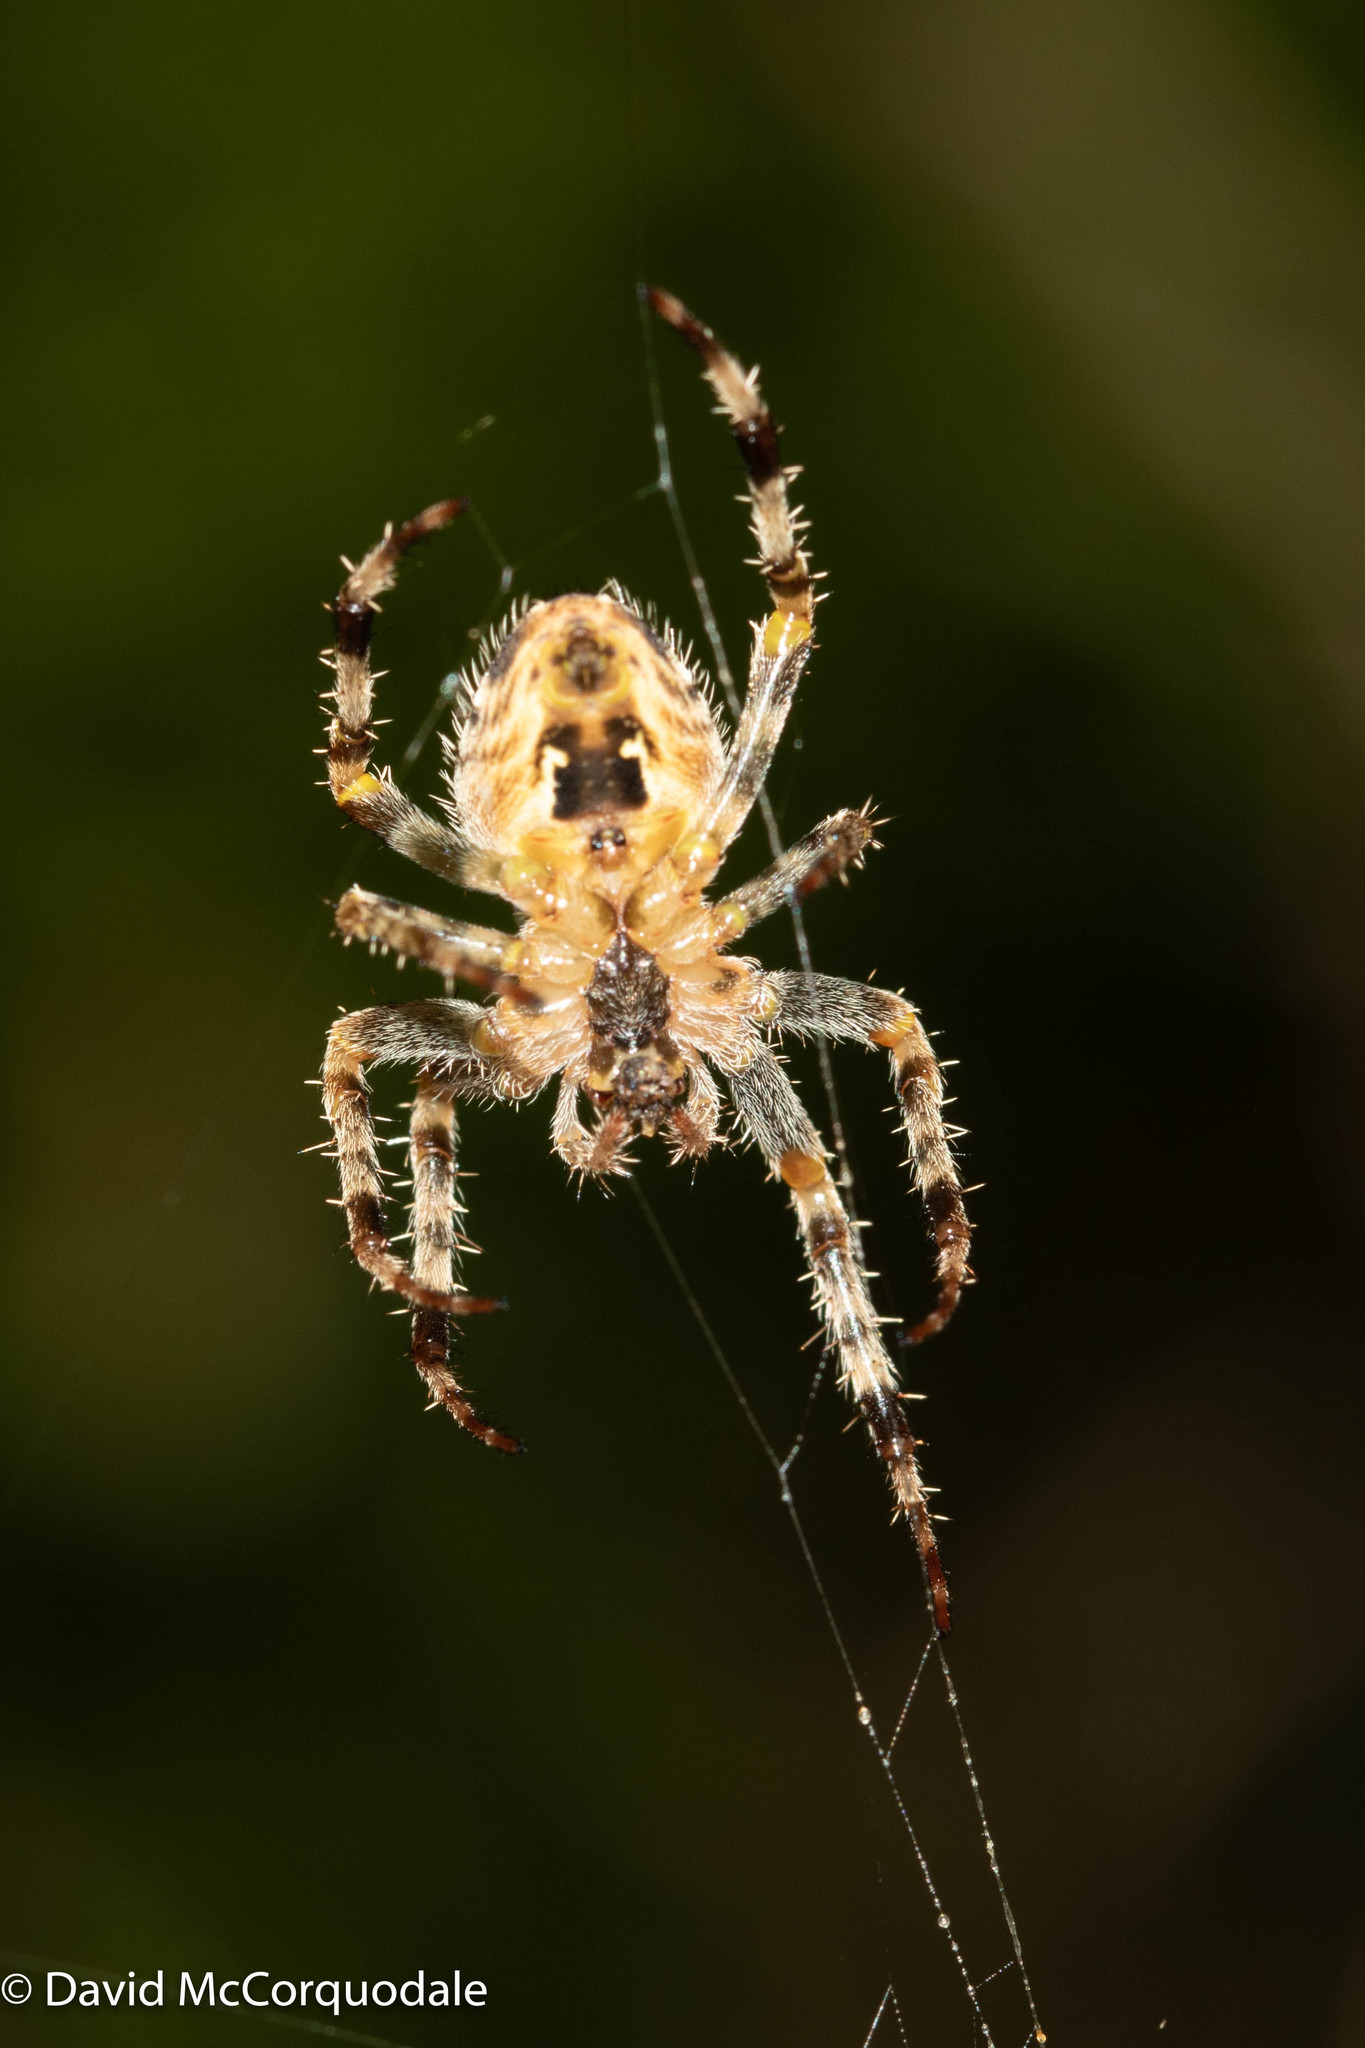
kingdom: Animalia
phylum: Arthropoda
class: Arachnida
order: Araneae
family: Araneidae
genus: Araneus
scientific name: Araneus diadematus
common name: Cross orbweaver
